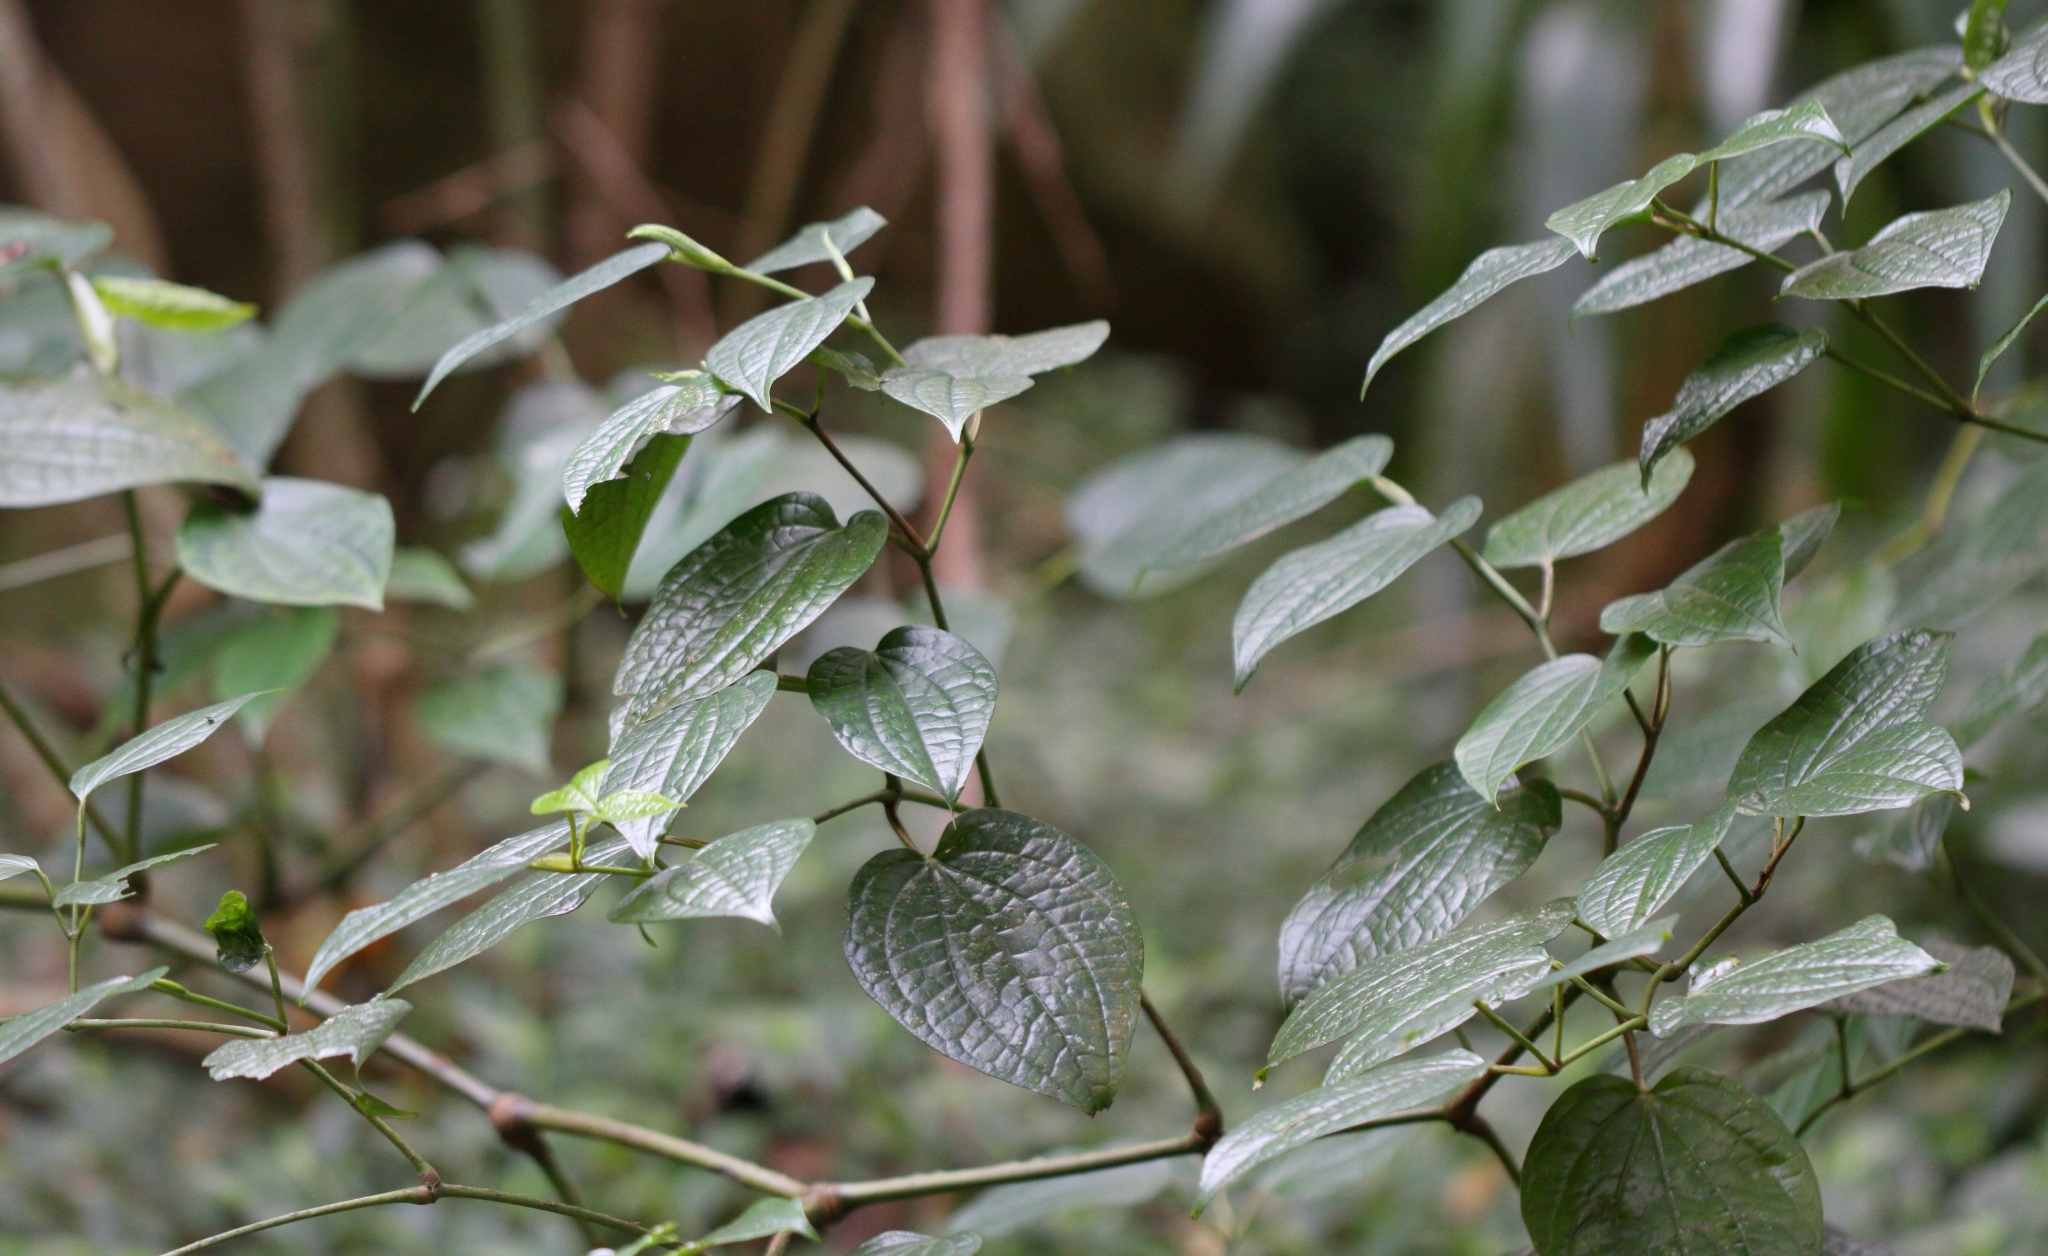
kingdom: Plantae
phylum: Tracheophyta
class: Magnoliopsida
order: Piperales
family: Piperaceae
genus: Piper
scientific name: Piper capense
